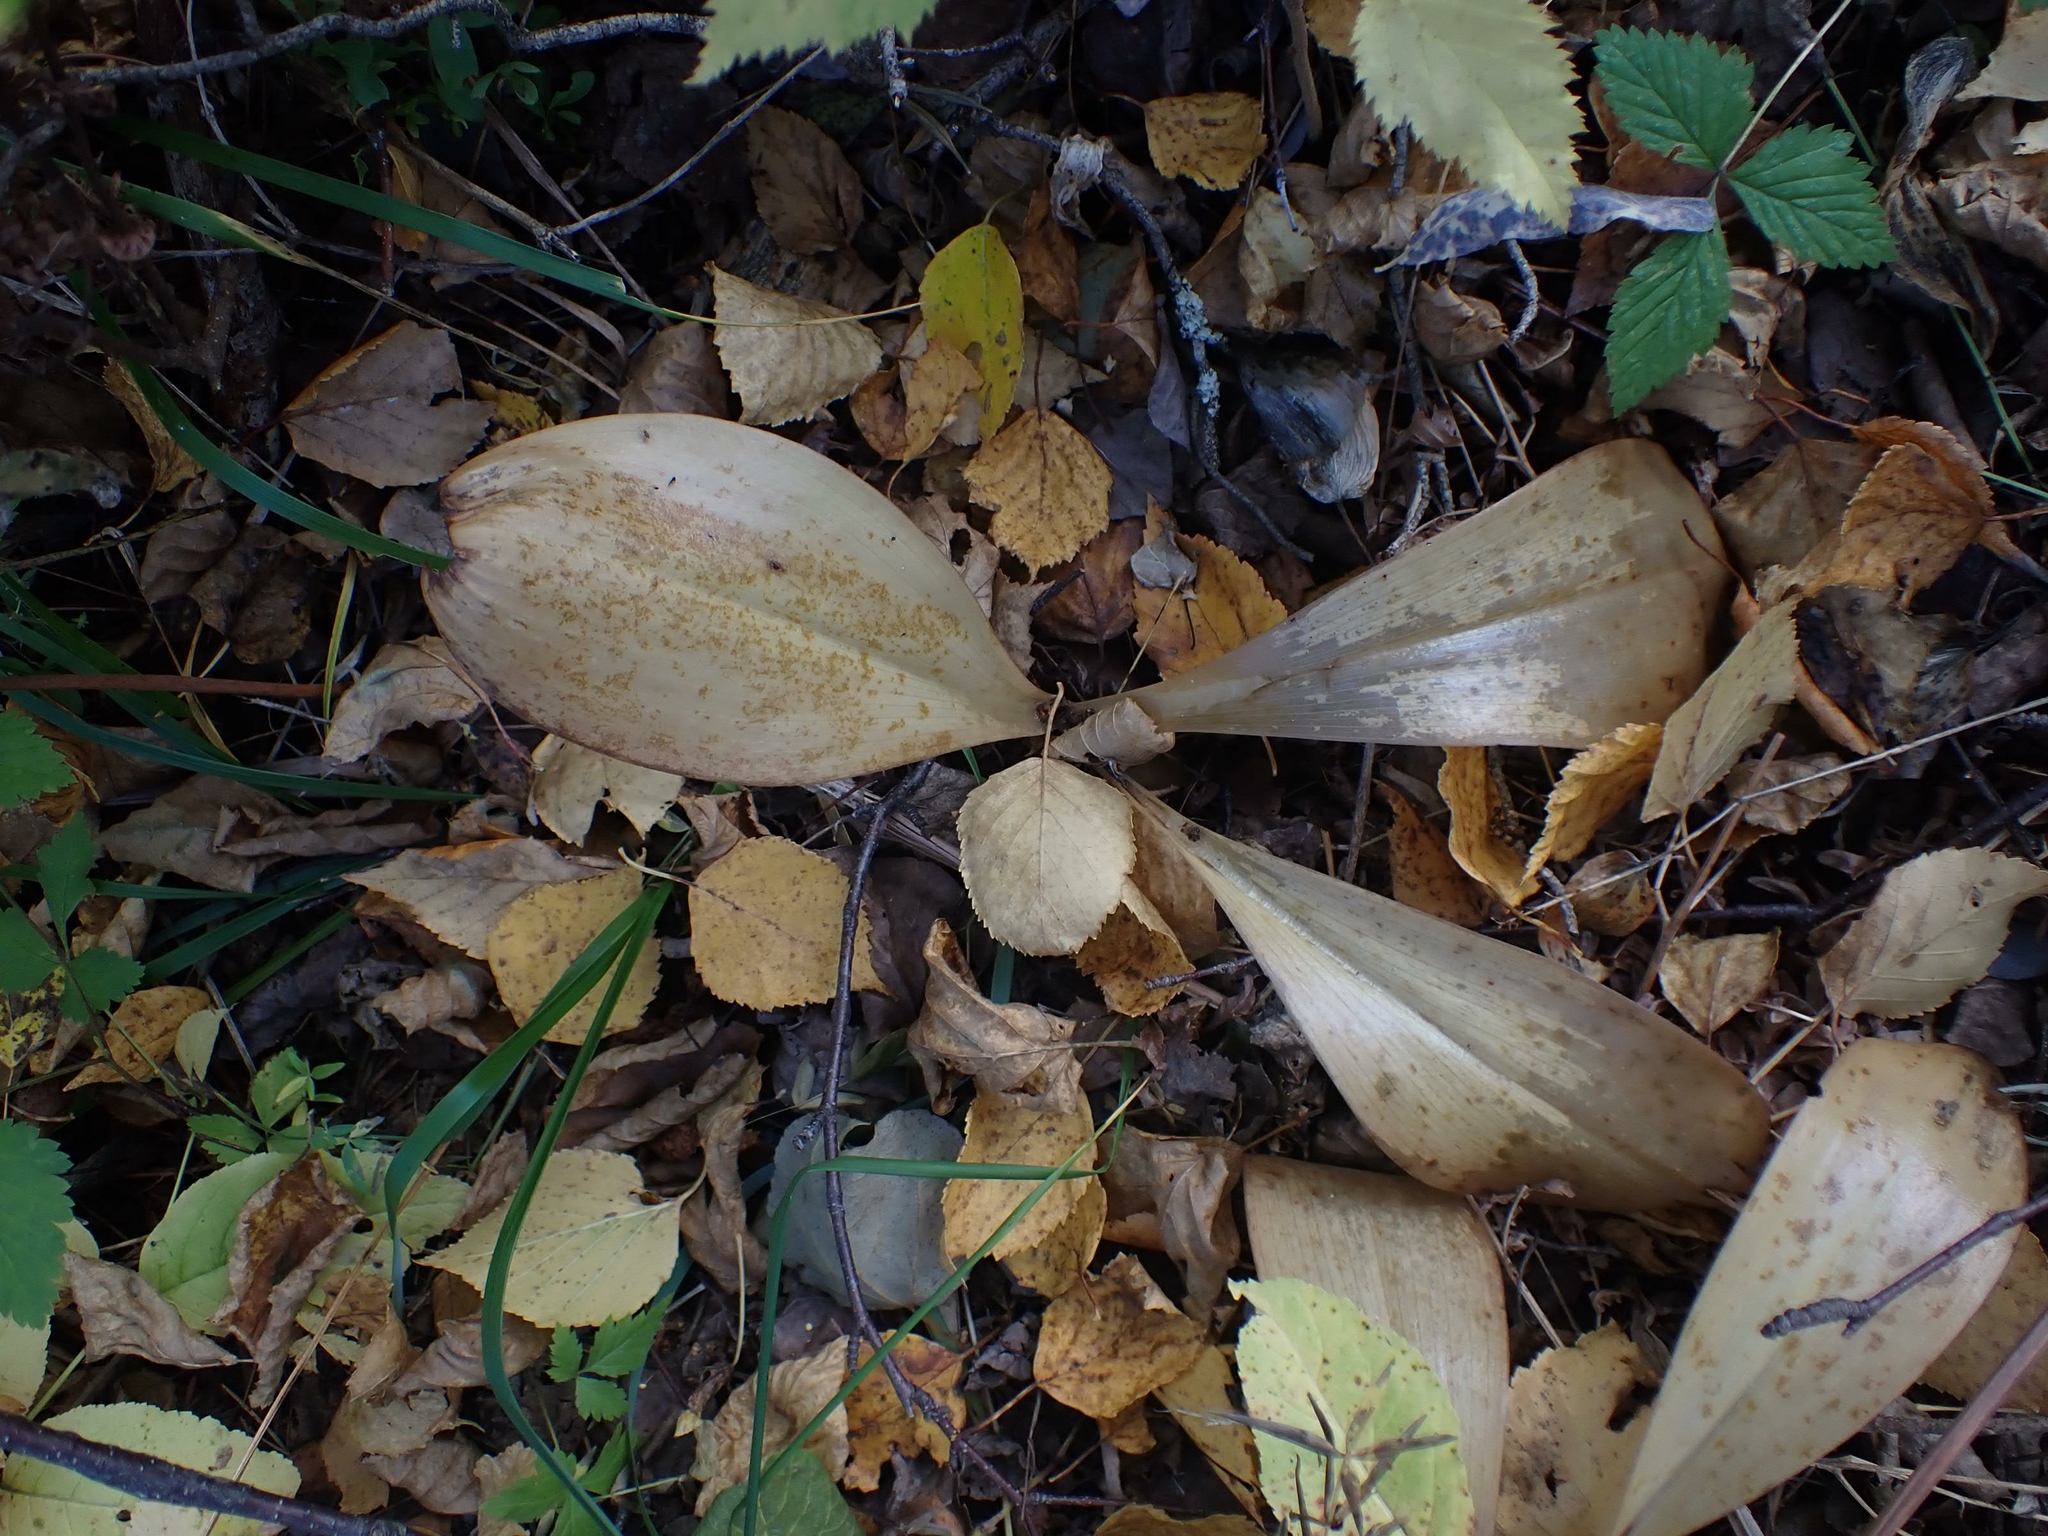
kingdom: Plantae
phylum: Tracheophyta
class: Liliopsida
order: Liliales
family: Liliaceae
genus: Clintonia
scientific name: Clintonia borealis
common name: Yellow clintonia
